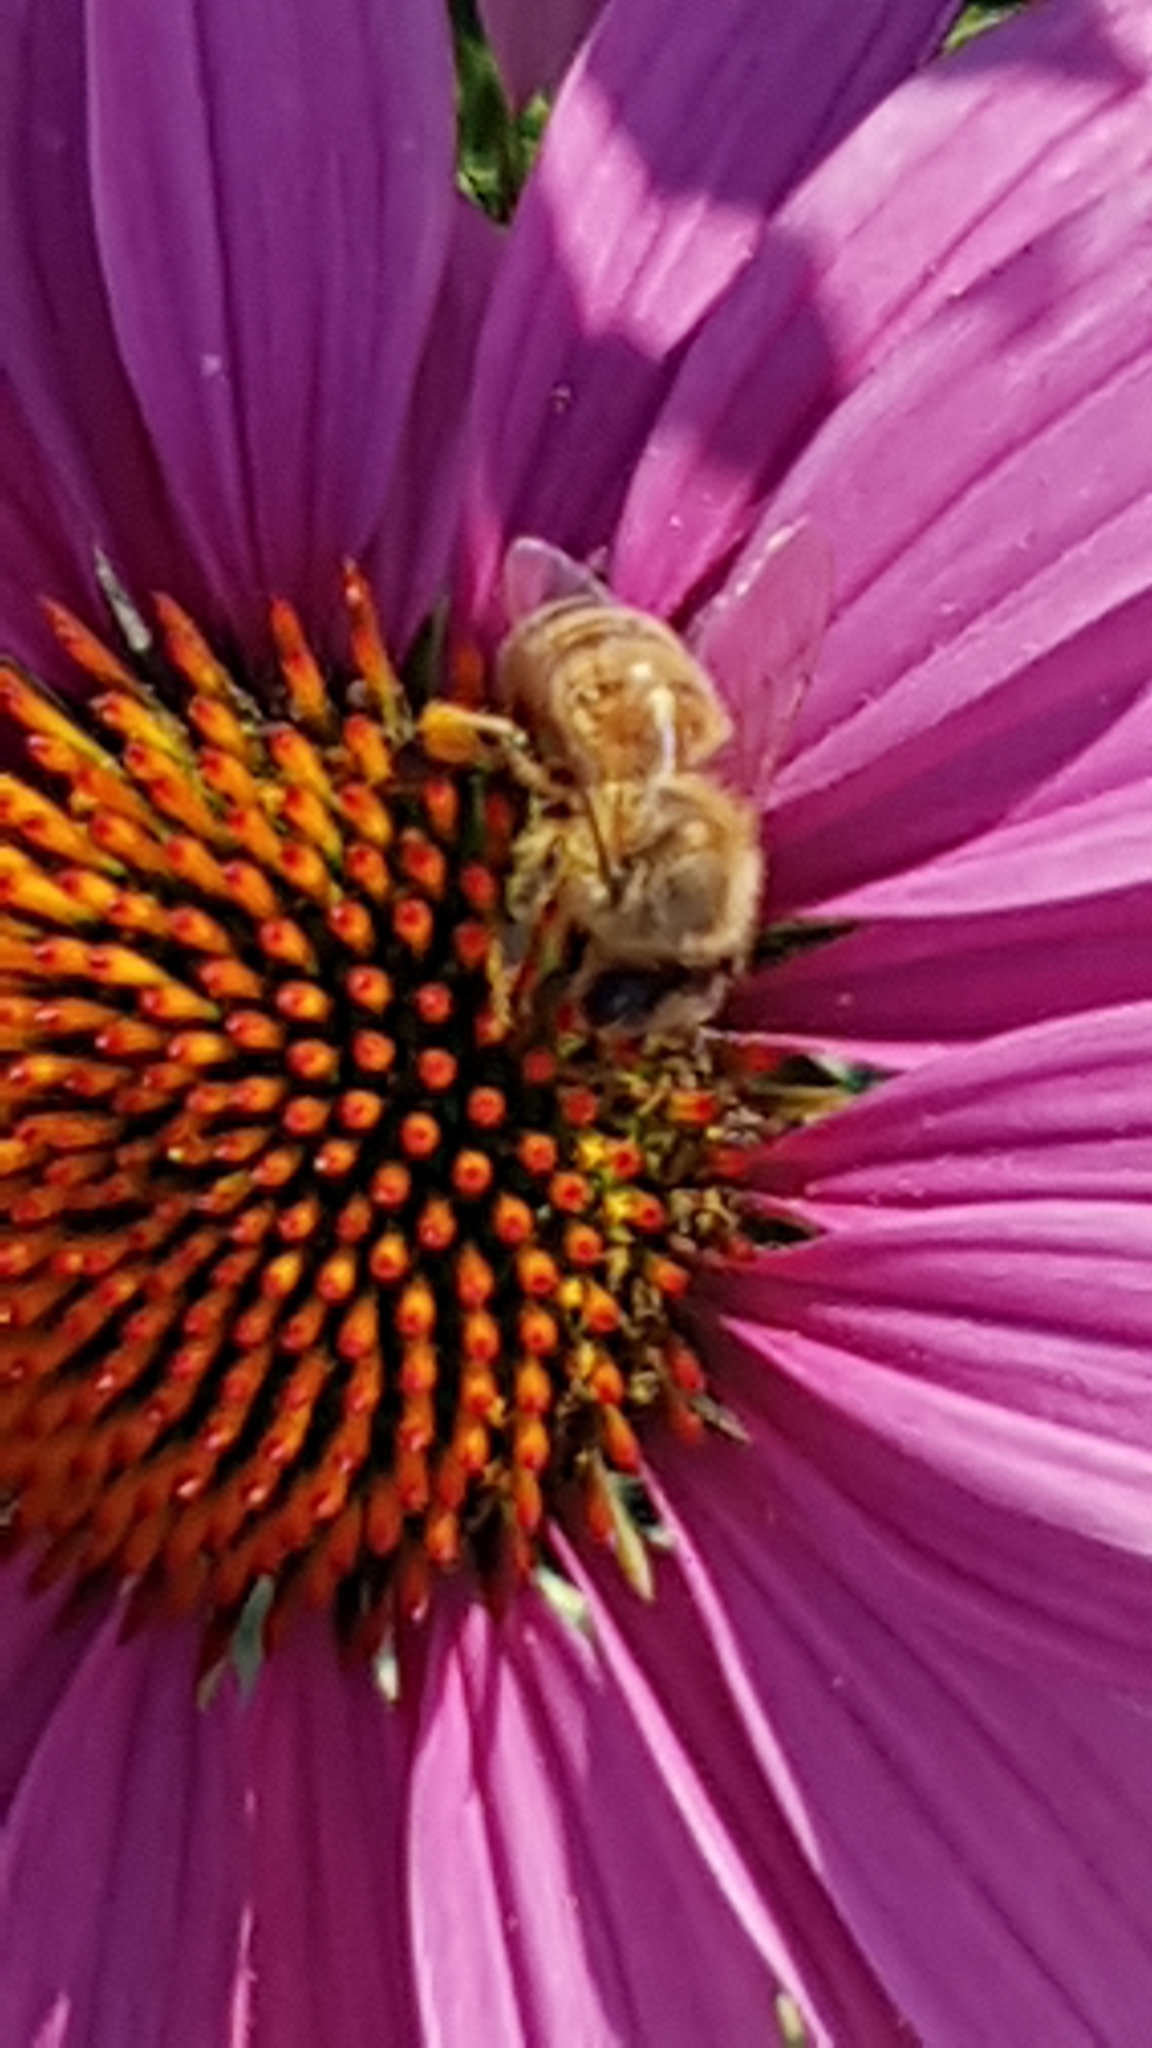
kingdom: Animalia
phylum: Arthropoda
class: Insecta
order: Hymenoptera
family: Apidae
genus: Apis
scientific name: Apis mellifera
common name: Honey bee
